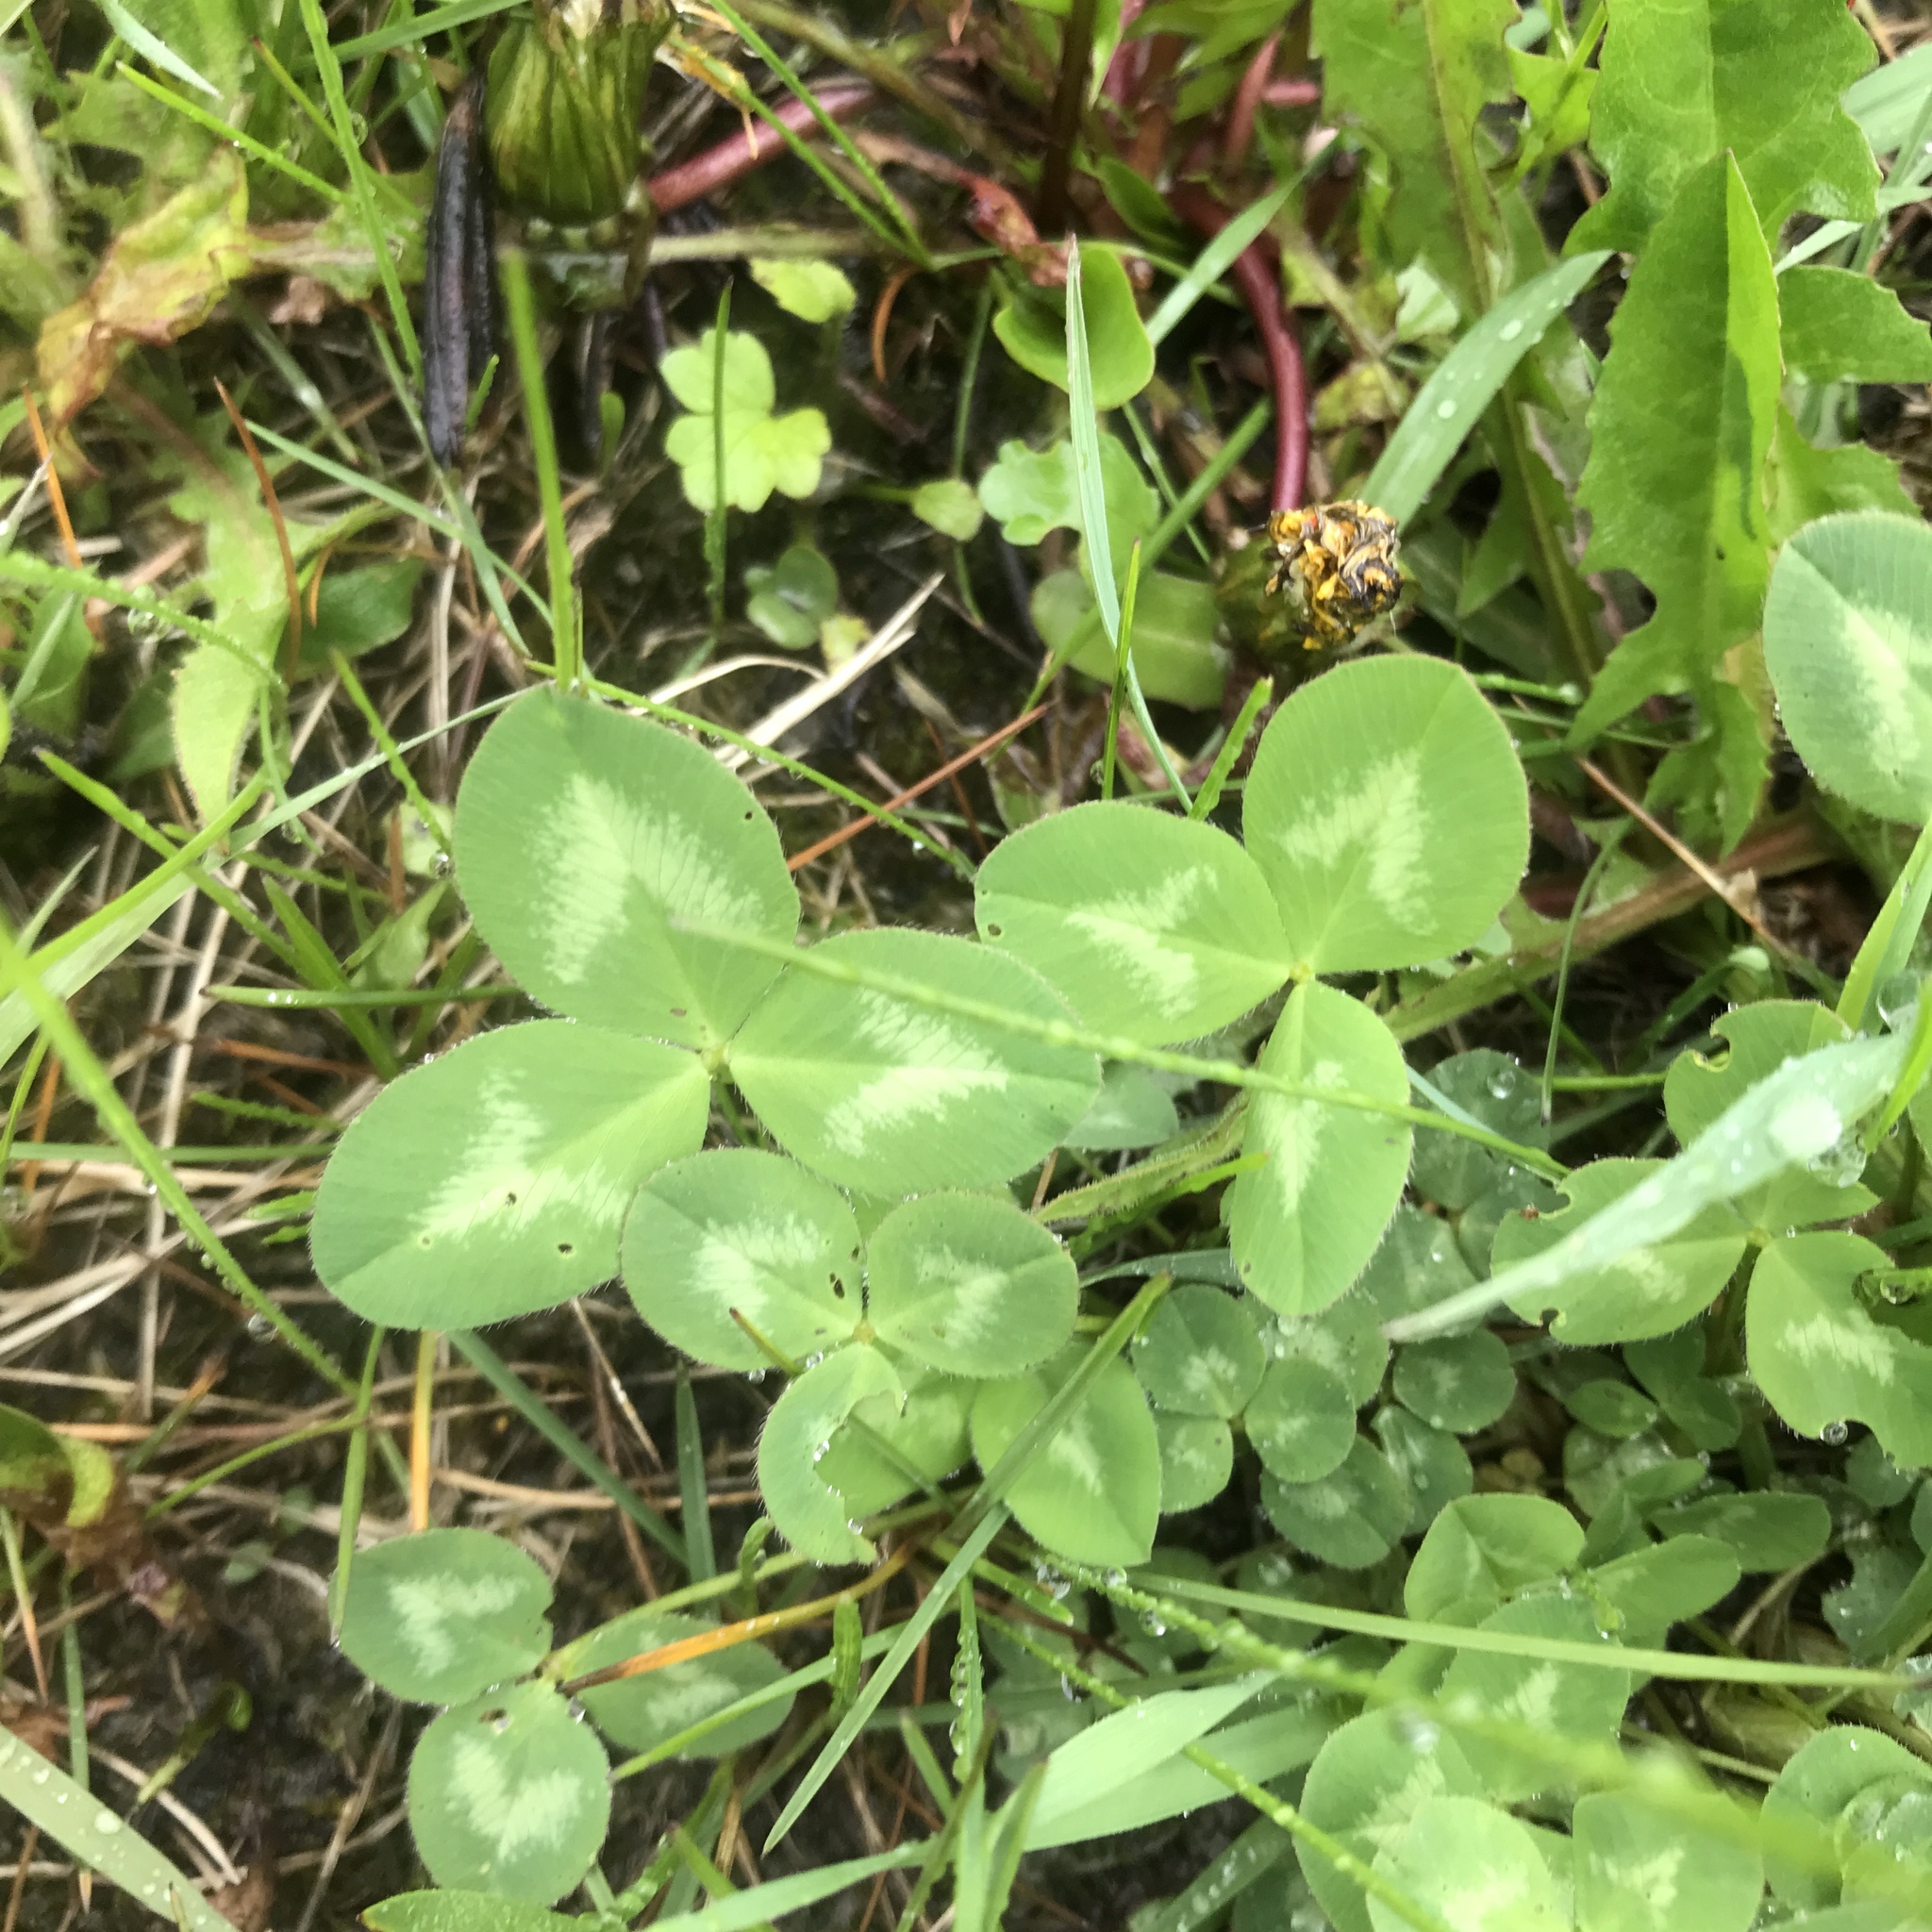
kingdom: Plantae
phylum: Tracheophyta
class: Magnoliopsida
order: Fabales
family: Fabaceae
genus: Trifolium
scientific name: Trifolium pratense
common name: Red clover
